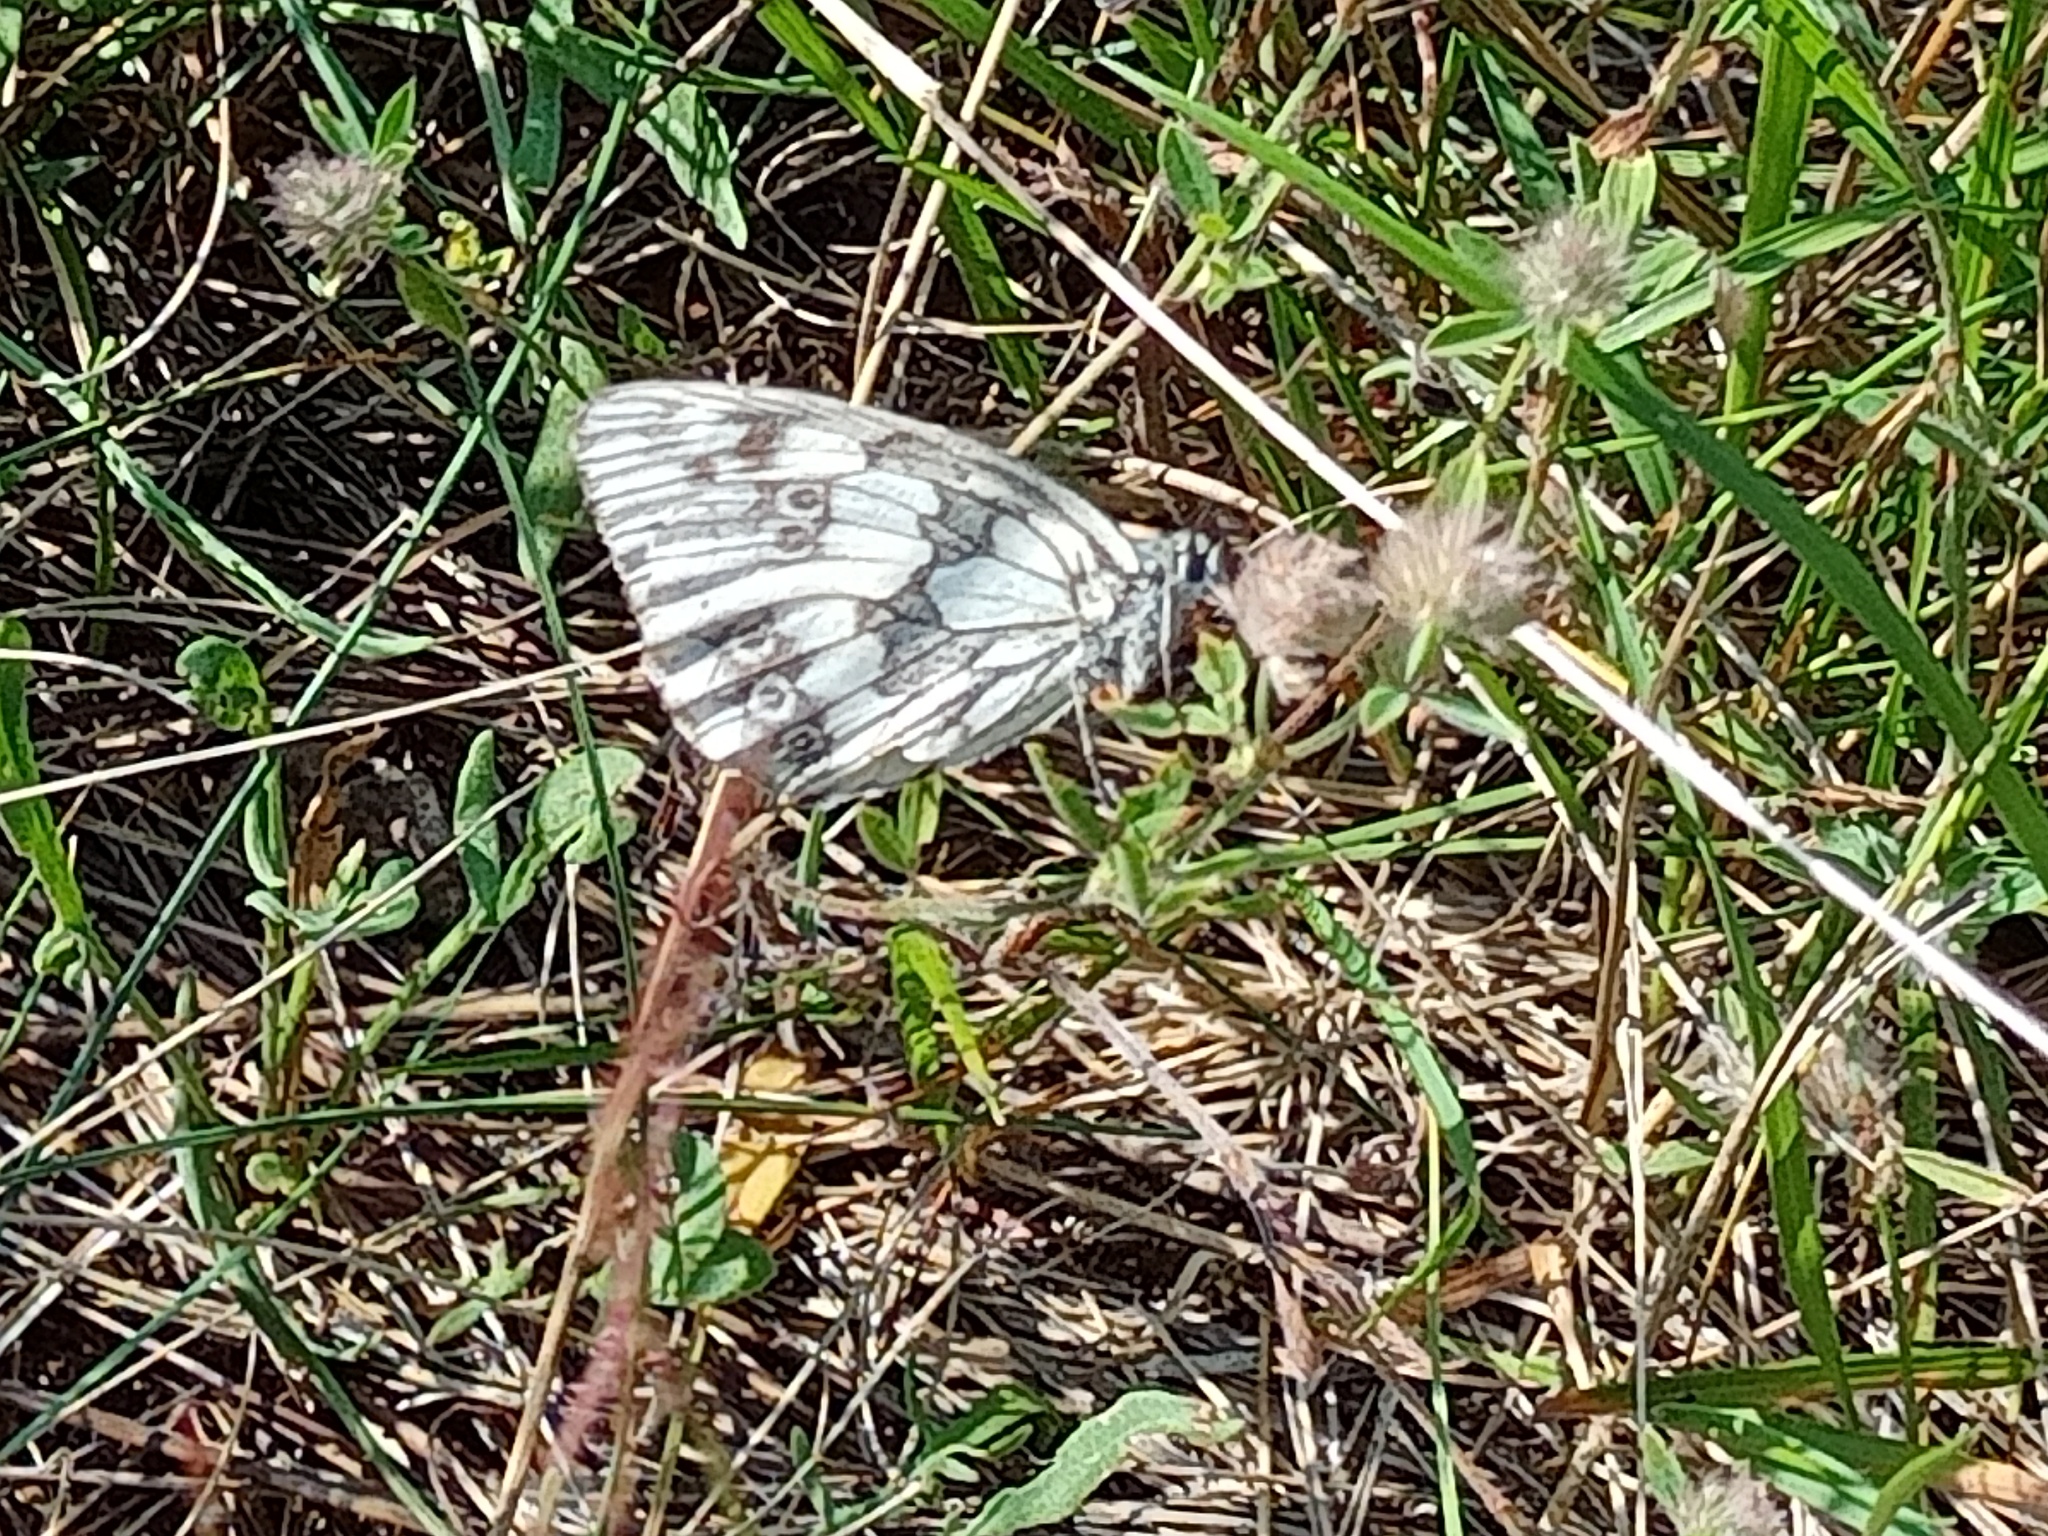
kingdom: Animalia
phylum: Arthropoda
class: Insecta
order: Lepidoptera
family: Nymphalidae
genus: Melanargia
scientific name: Melanargia galathea
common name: Marbled white
